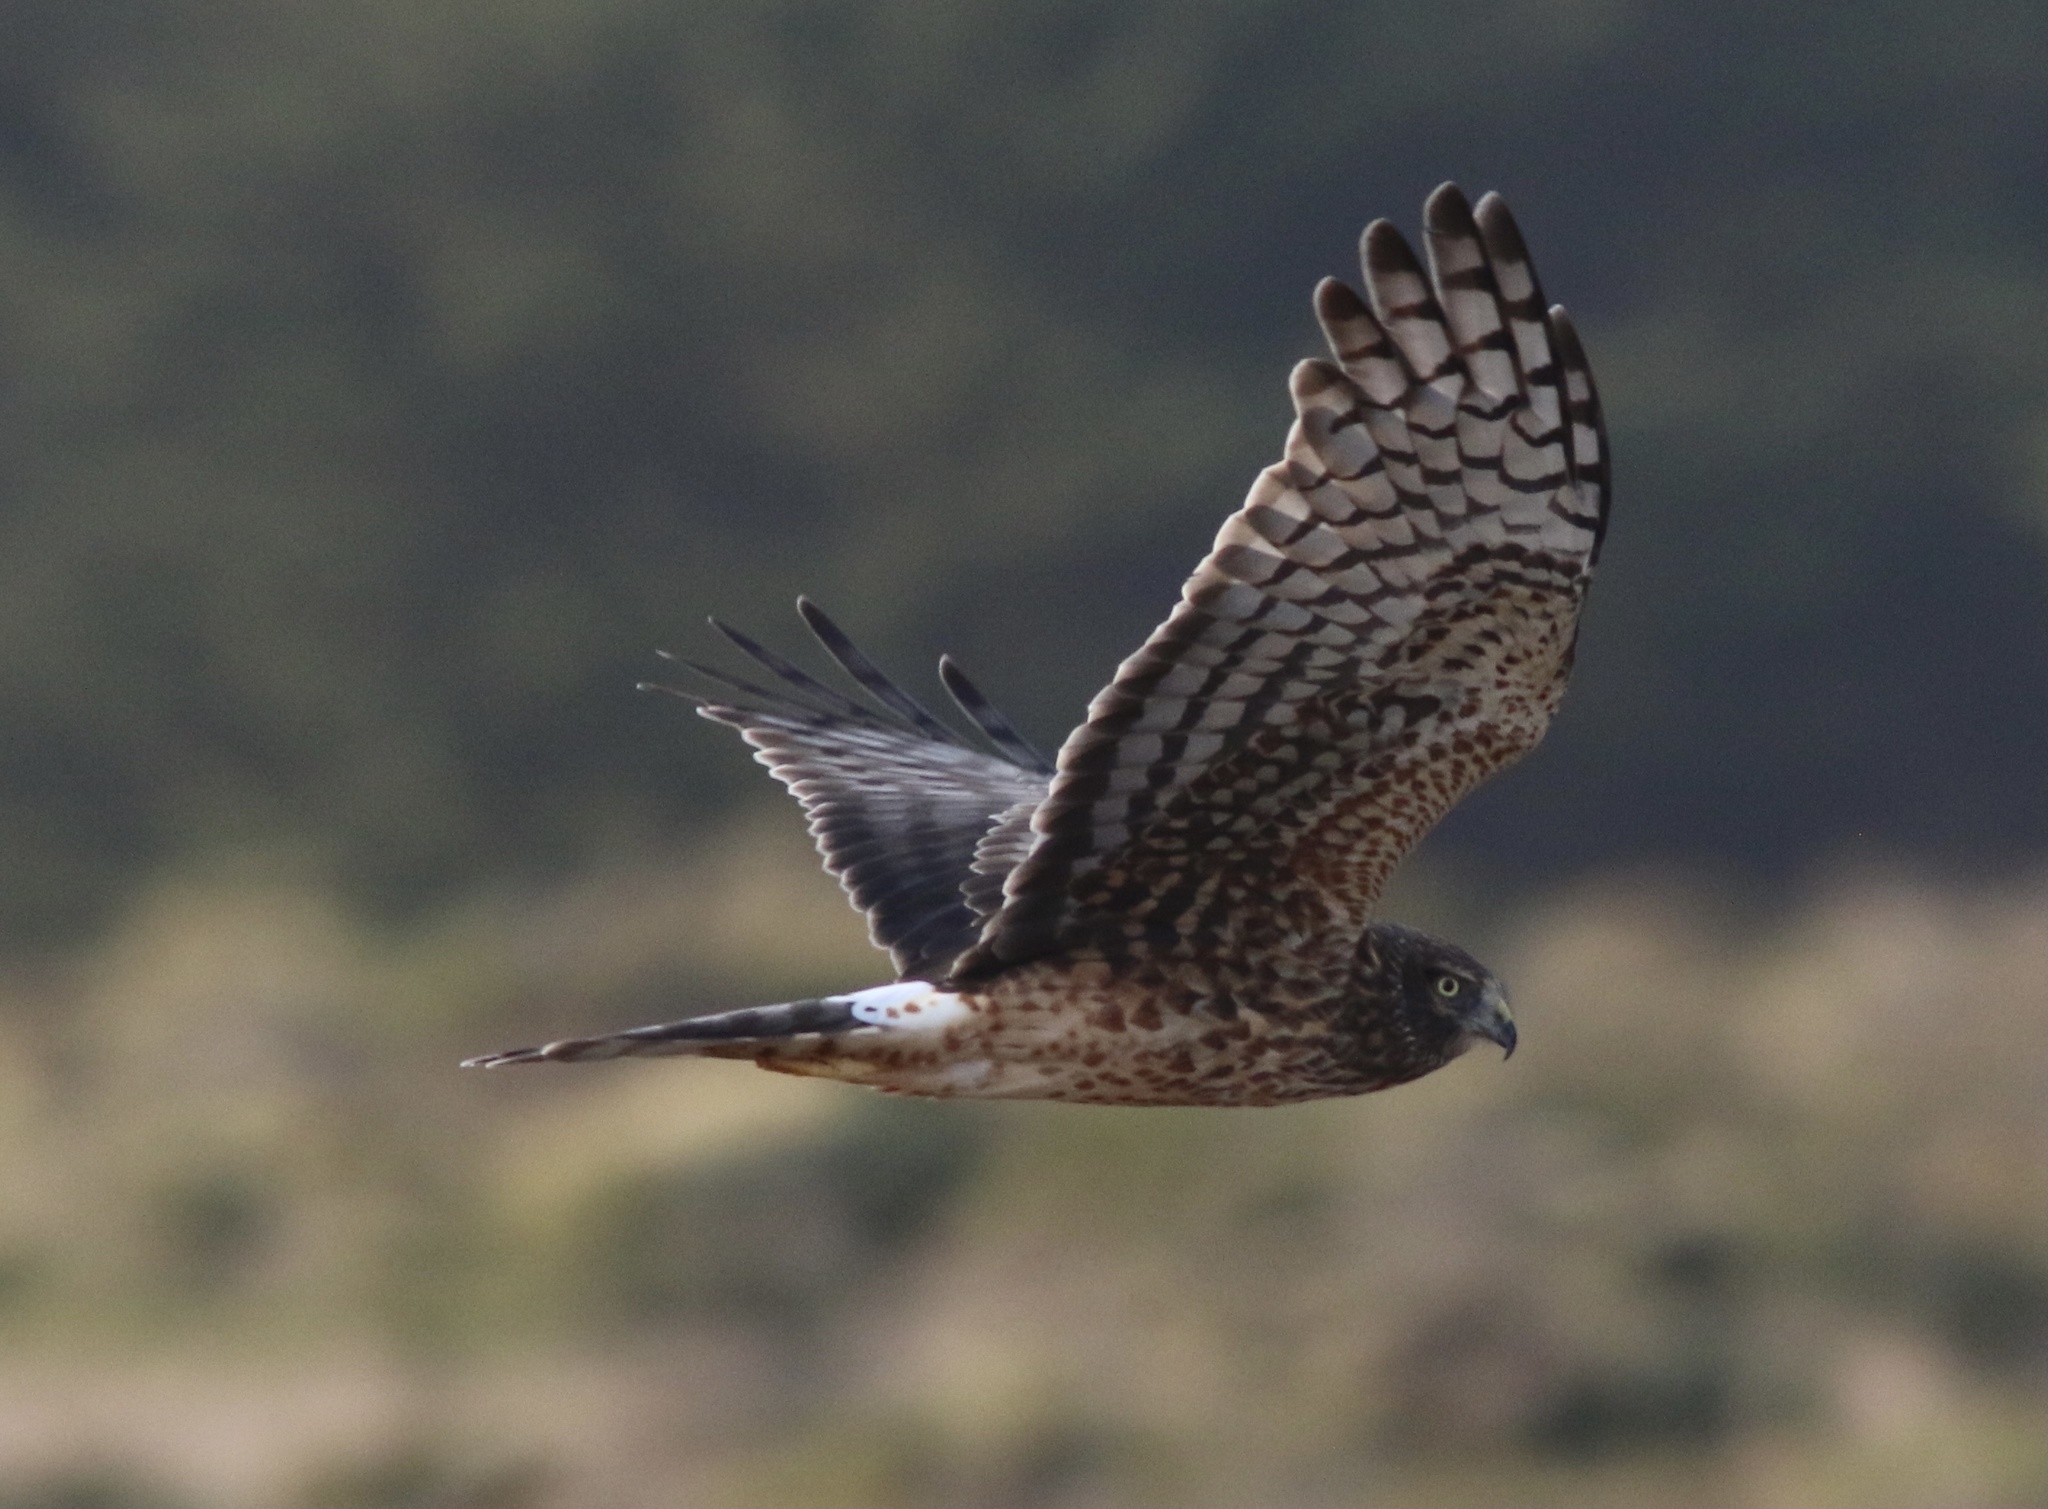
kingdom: Animalia
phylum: Chordata
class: Aves
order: Accipitriformes
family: Accipitridae
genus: Circus
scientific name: Circus cyaneus
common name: Hen harrier
